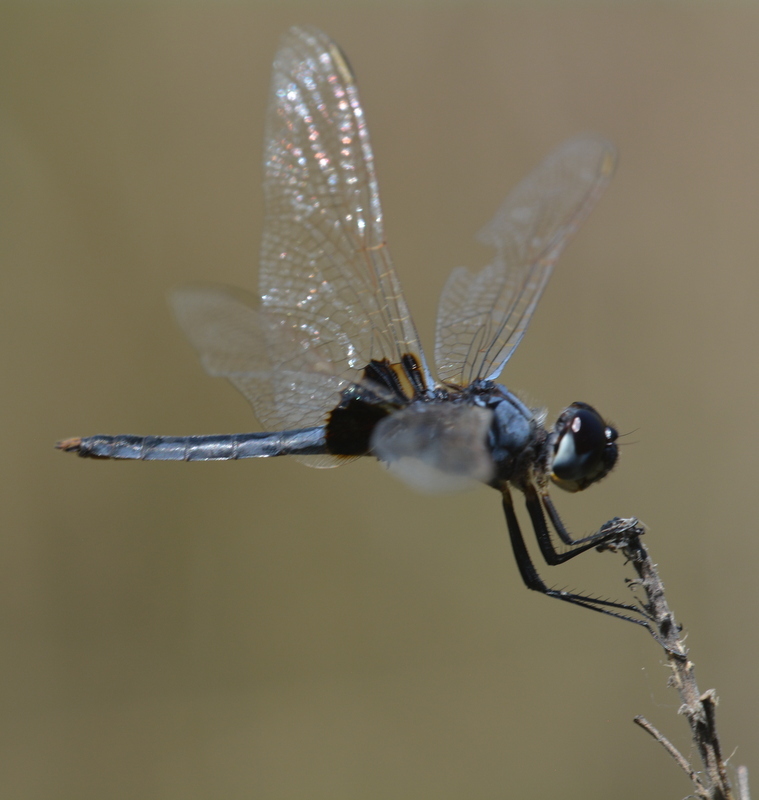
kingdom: Animalia
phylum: Arthropoda
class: Insecta
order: Odonata
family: Libellulidae
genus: Urothemis
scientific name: Urothemis edwardsii
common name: Blue basker
